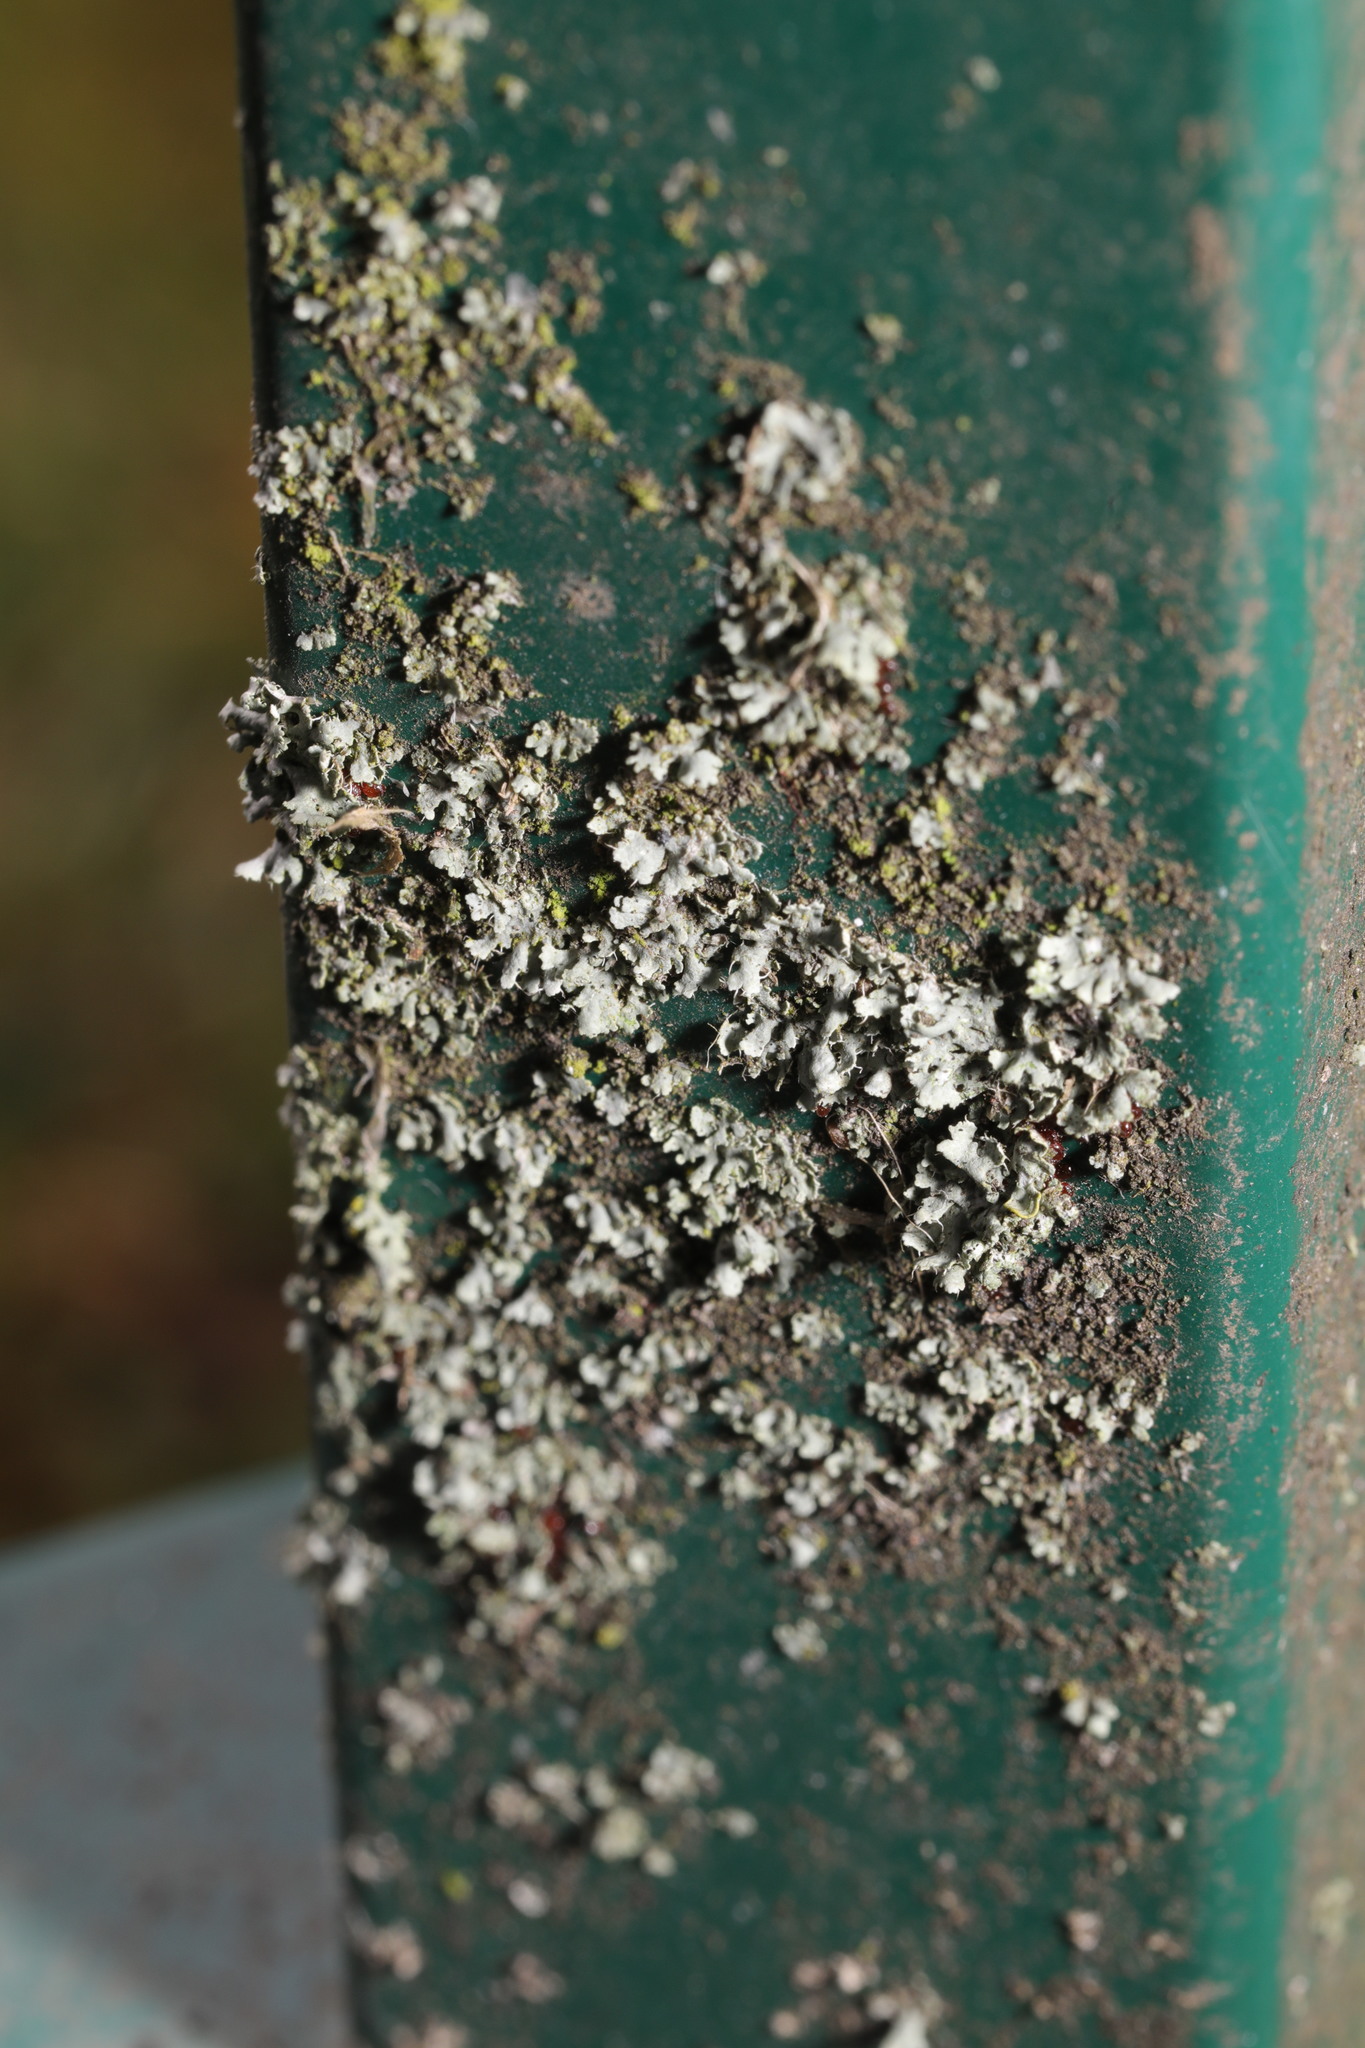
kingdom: Fungi
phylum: Ascomycota
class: Lecanoromycetes
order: Caliciales
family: Physciaceae
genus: Physcia
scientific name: Physcia tenella
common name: Fringed rosette lichen
